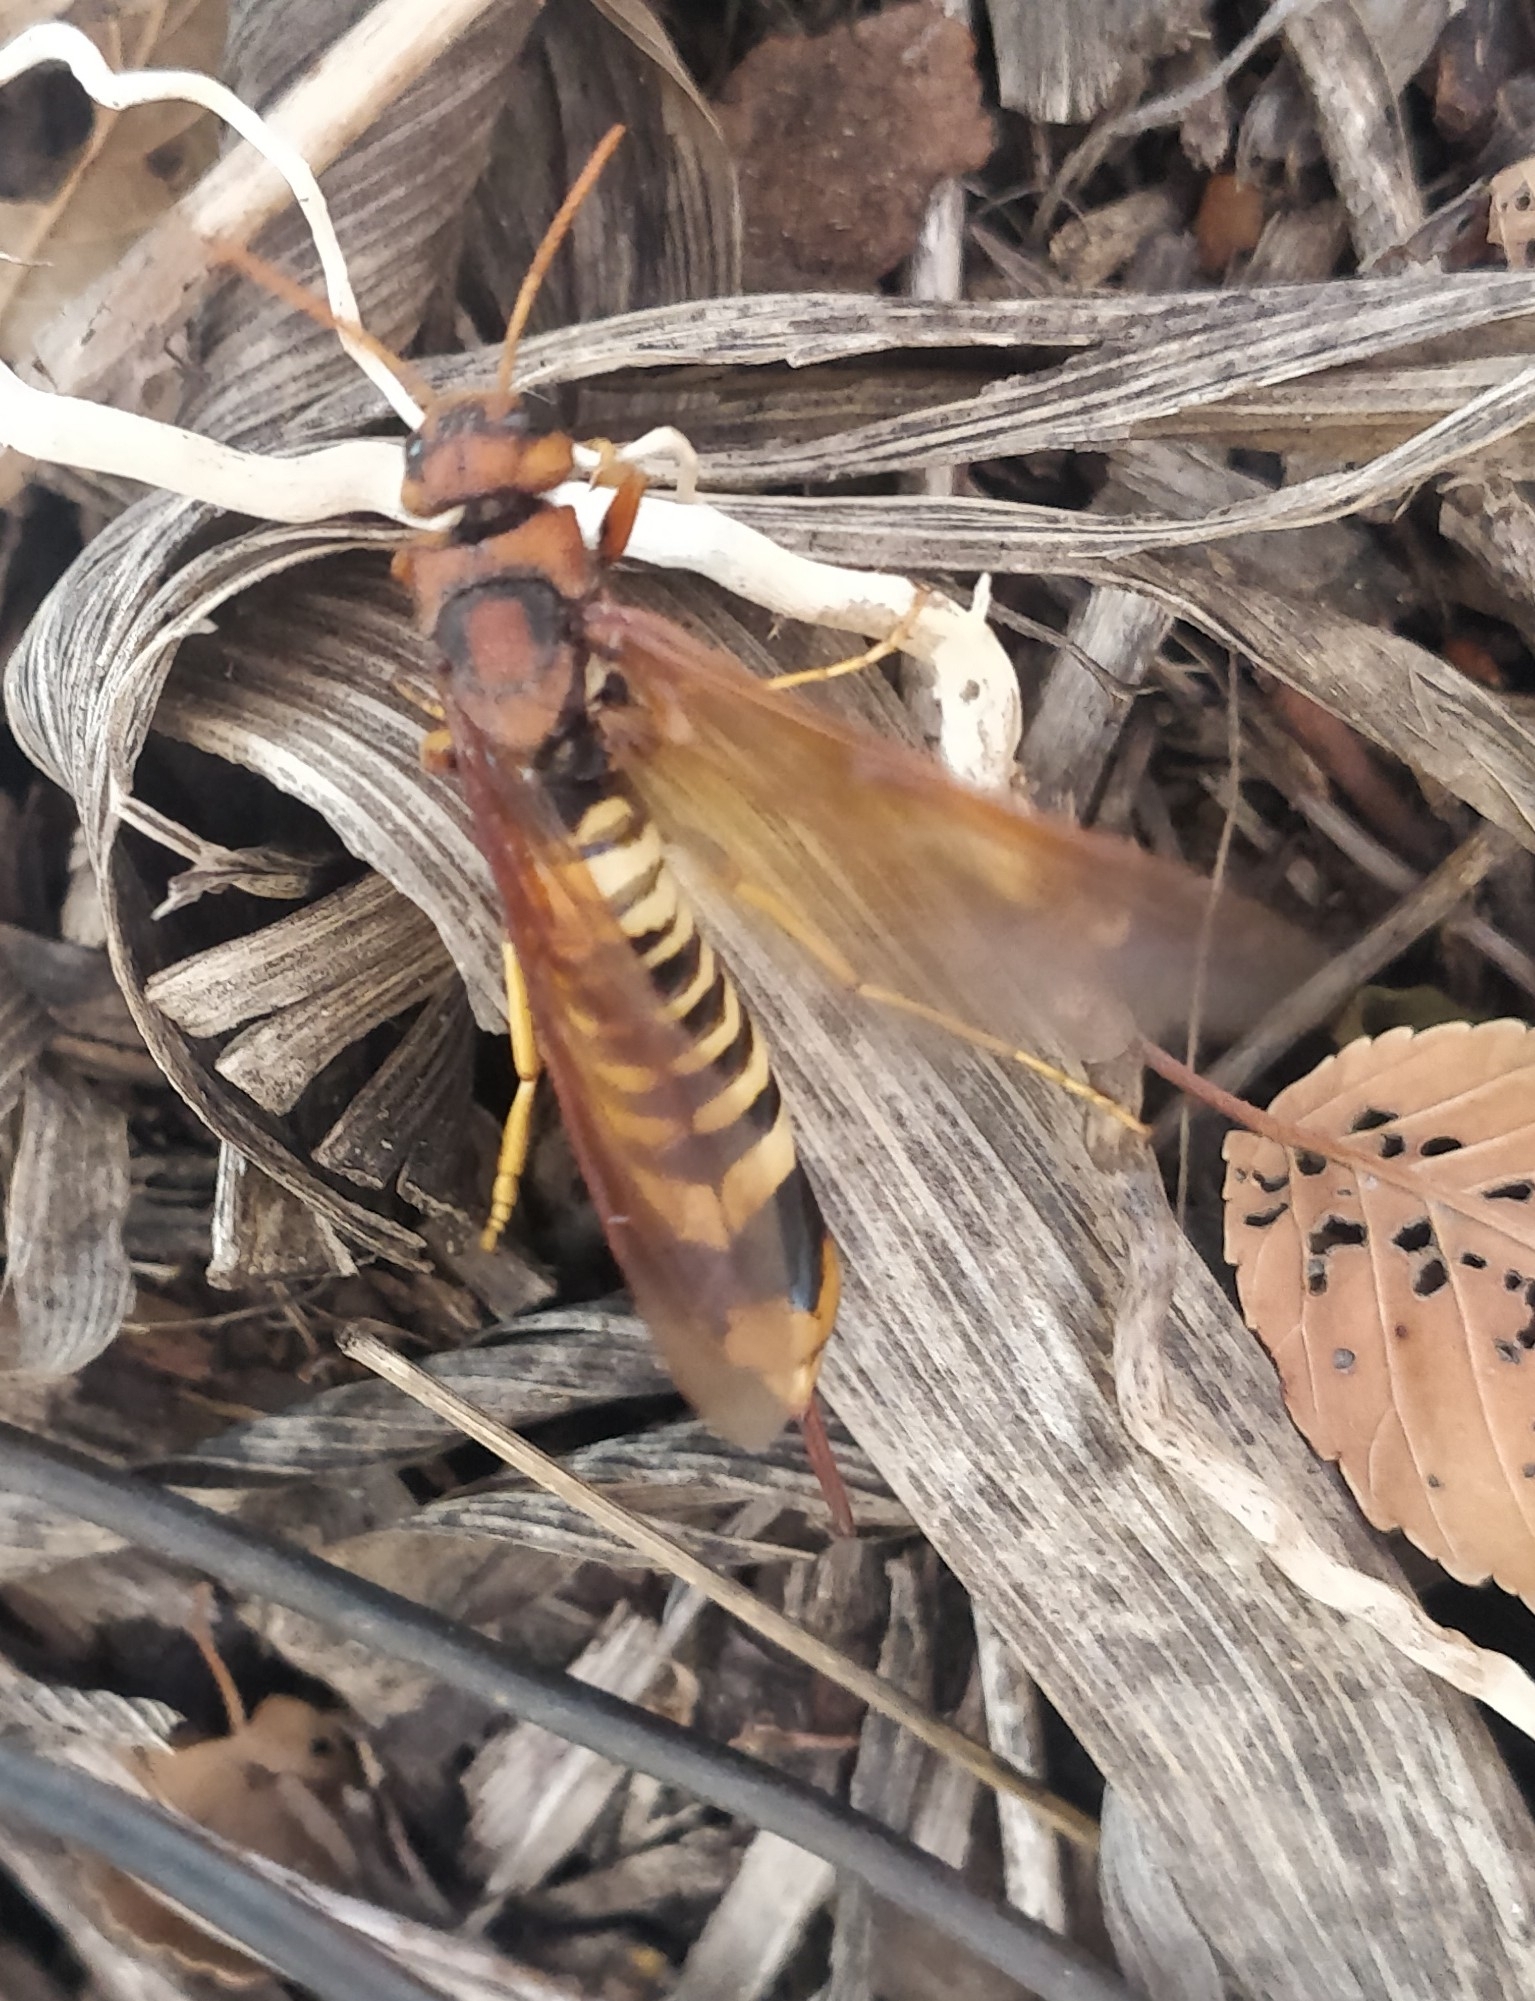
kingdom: Animalia
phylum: Arthropoda
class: Insecta
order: Hymenoptera
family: Siricidae
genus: Tremex
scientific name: Tremex columba
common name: Wasp
